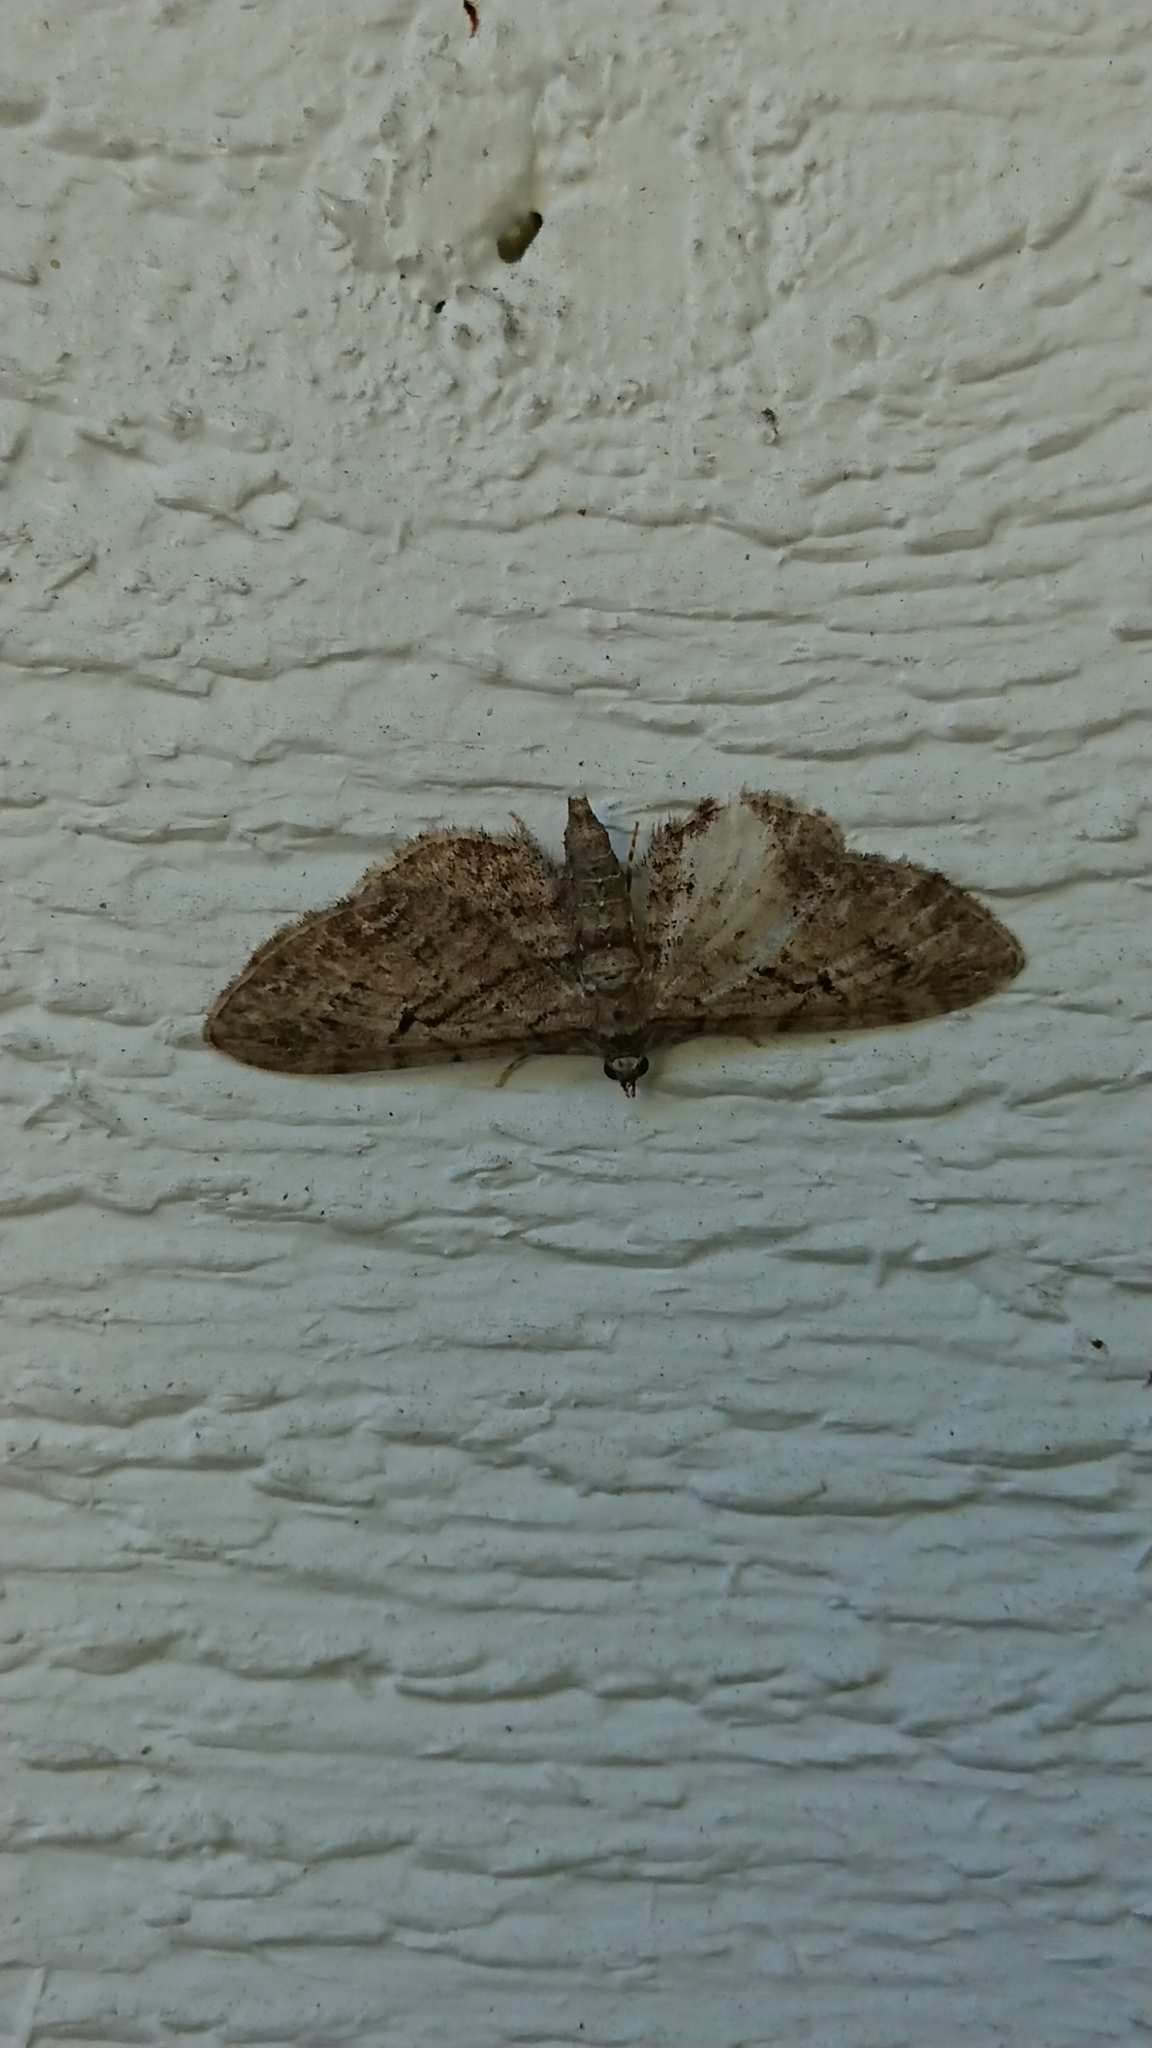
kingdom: Animalia
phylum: Arthropoda
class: Insecta
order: Lepidoptera
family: Geometridae
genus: Eupithecia
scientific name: Eupithecia pusillata
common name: Juniper pug
